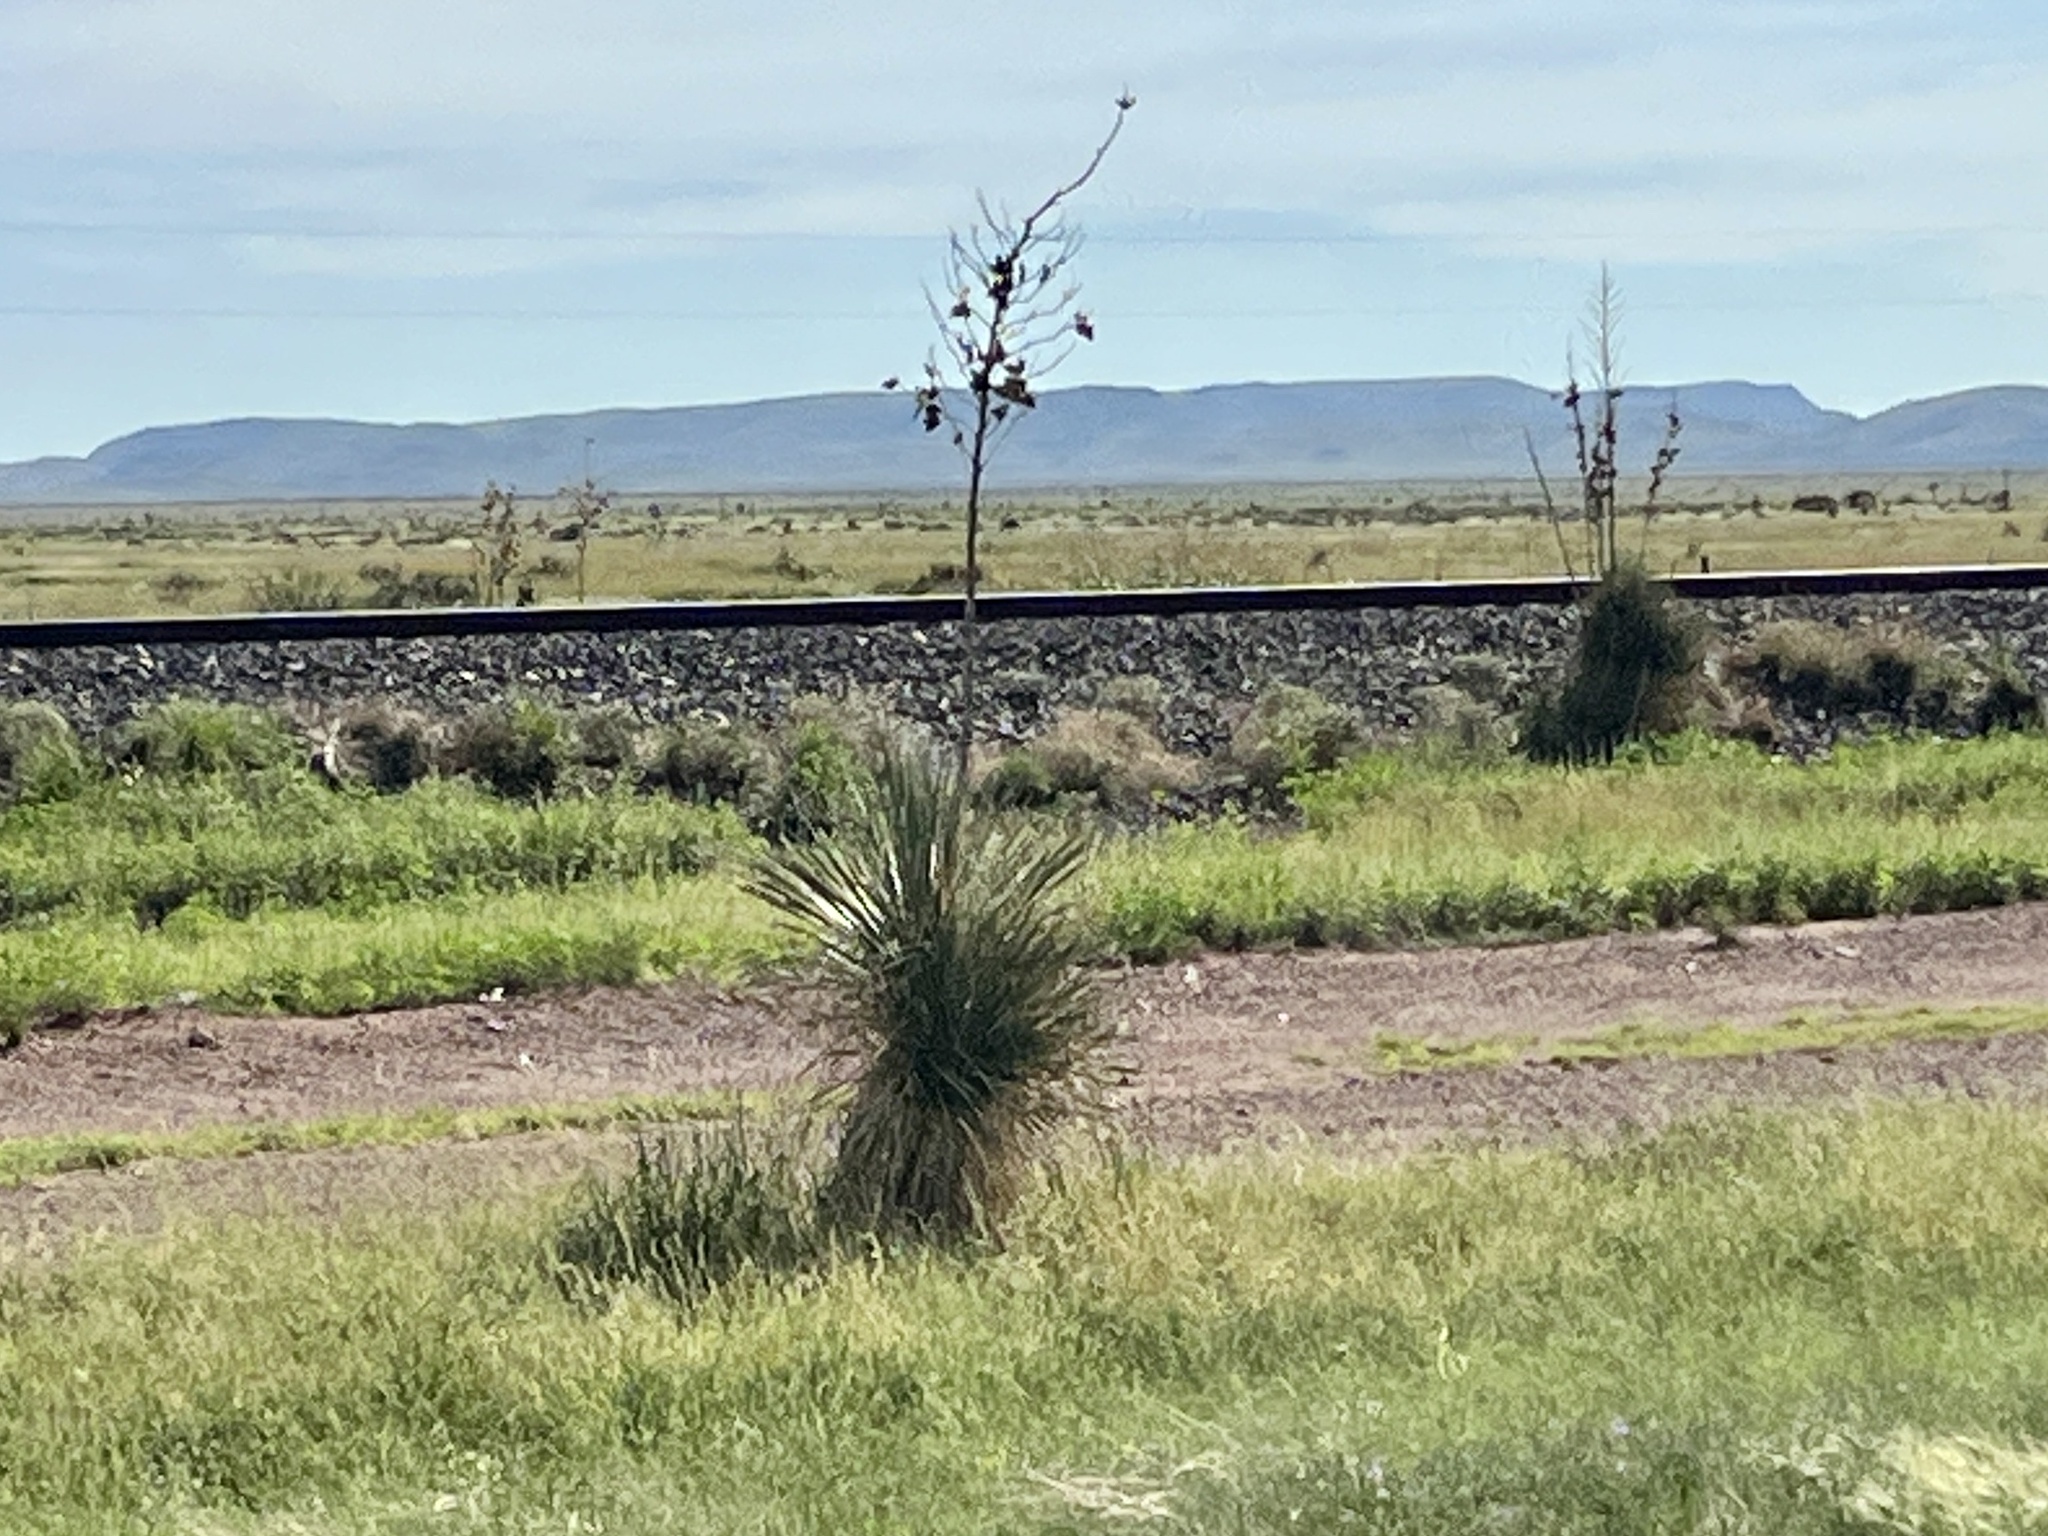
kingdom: Plantae
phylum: Tracheophyta
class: Liliopsida
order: Asparagales
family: Asparagaceae
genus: Yucca
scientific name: Yucca elata
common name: Palmella
